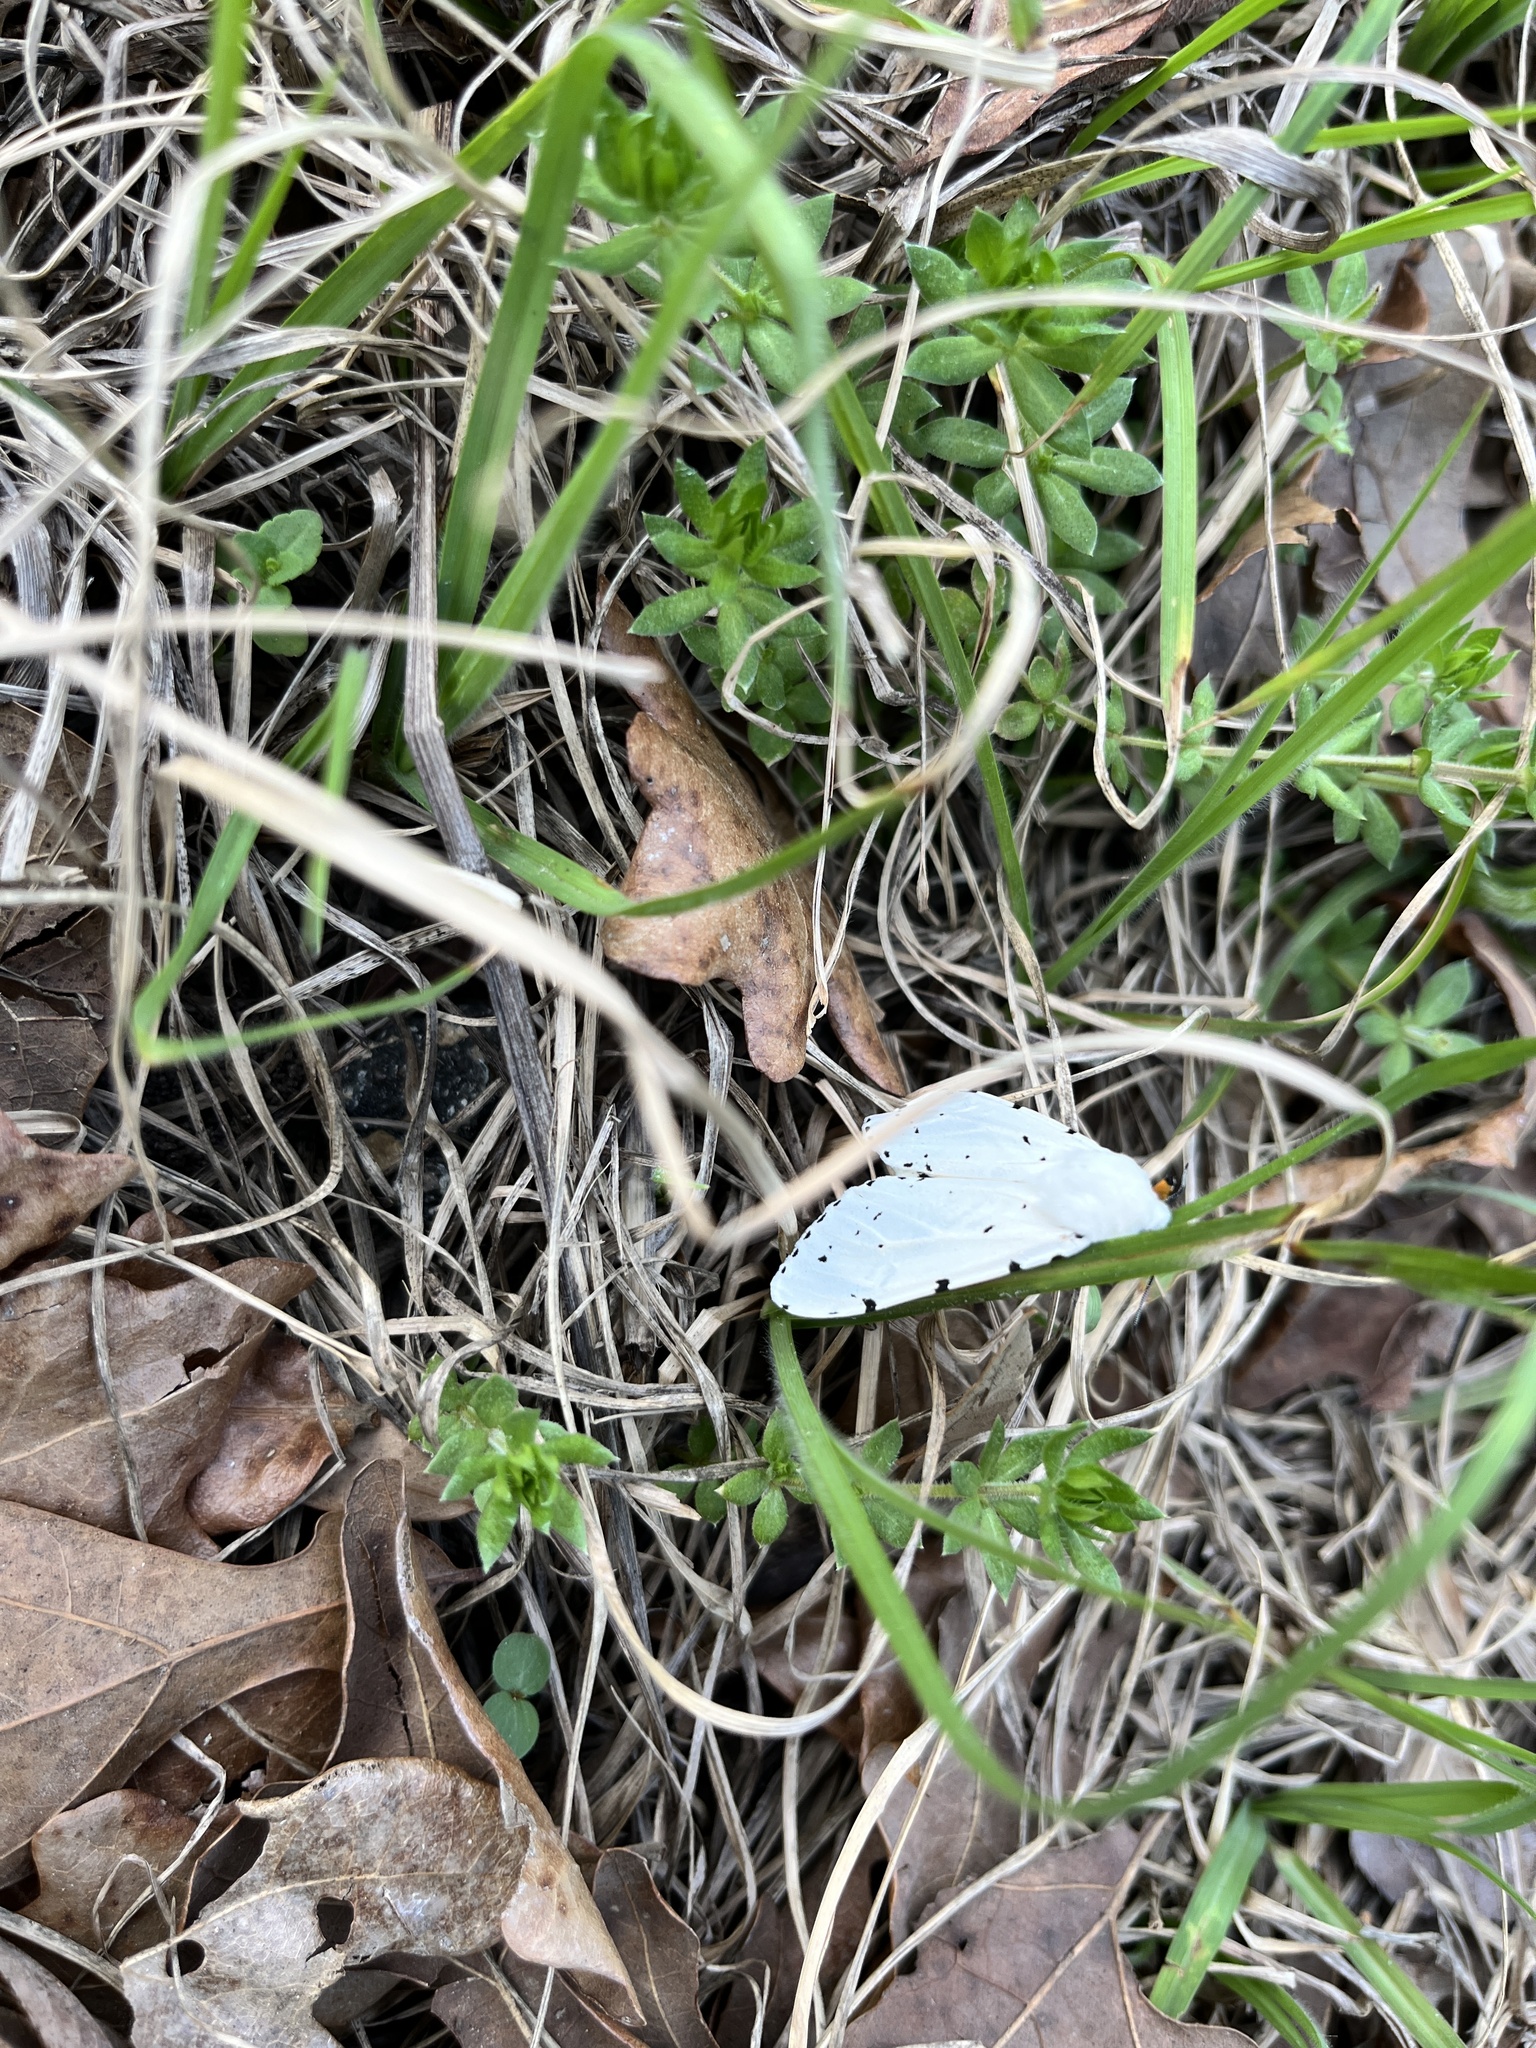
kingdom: Animalia
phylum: Arthropoda
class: Insecta
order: Lepidoptera
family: Erebidae
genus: Estigmene
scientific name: Estigmene acrea
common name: Salt marsh moth
